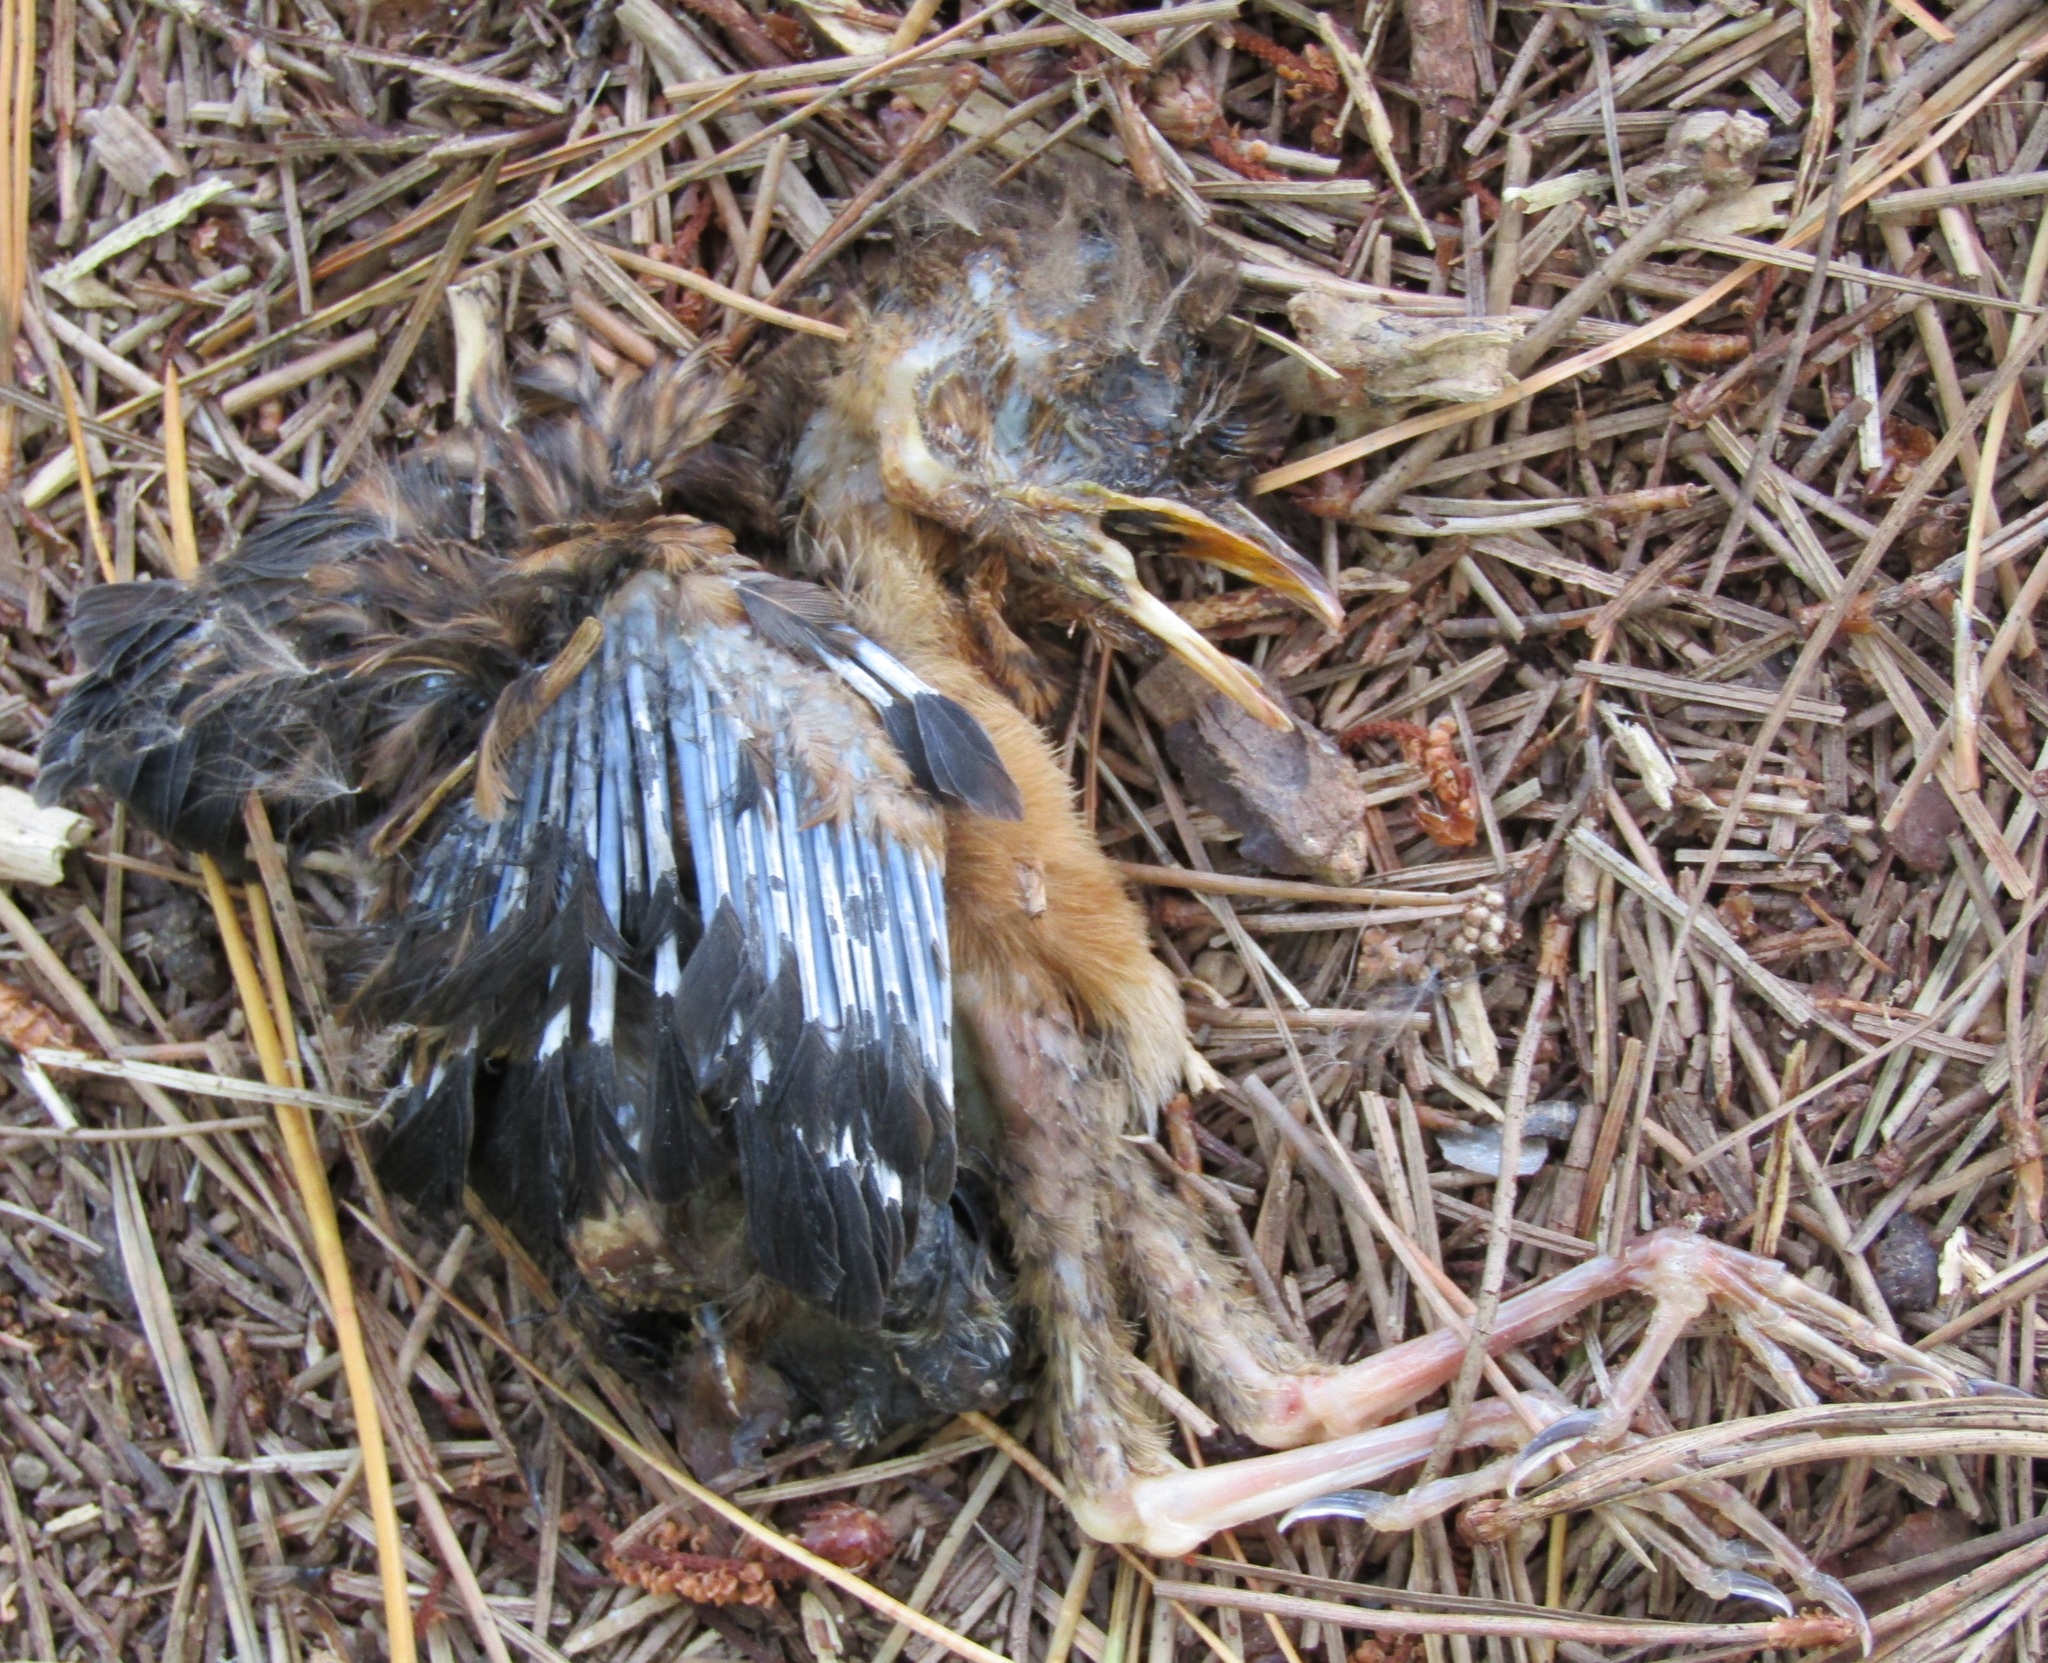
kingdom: Animalia
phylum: Chordata
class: Aves
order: Passeriformes
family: Turdidae
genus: Turdus
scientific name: Turdus merula
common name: Common blackbird
